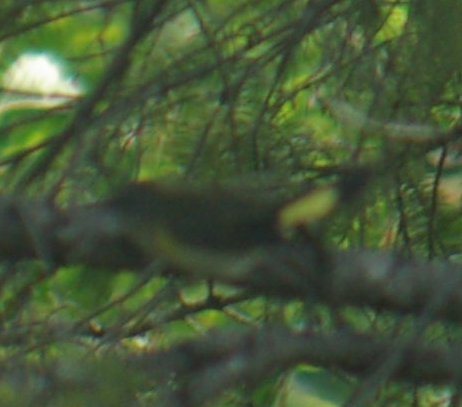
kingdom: Animalia
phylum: Chordata
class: Aves
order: Passeriformes
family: Parulidae
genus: Setophaga
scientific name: Setophaga ruticilla
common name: American redstart
